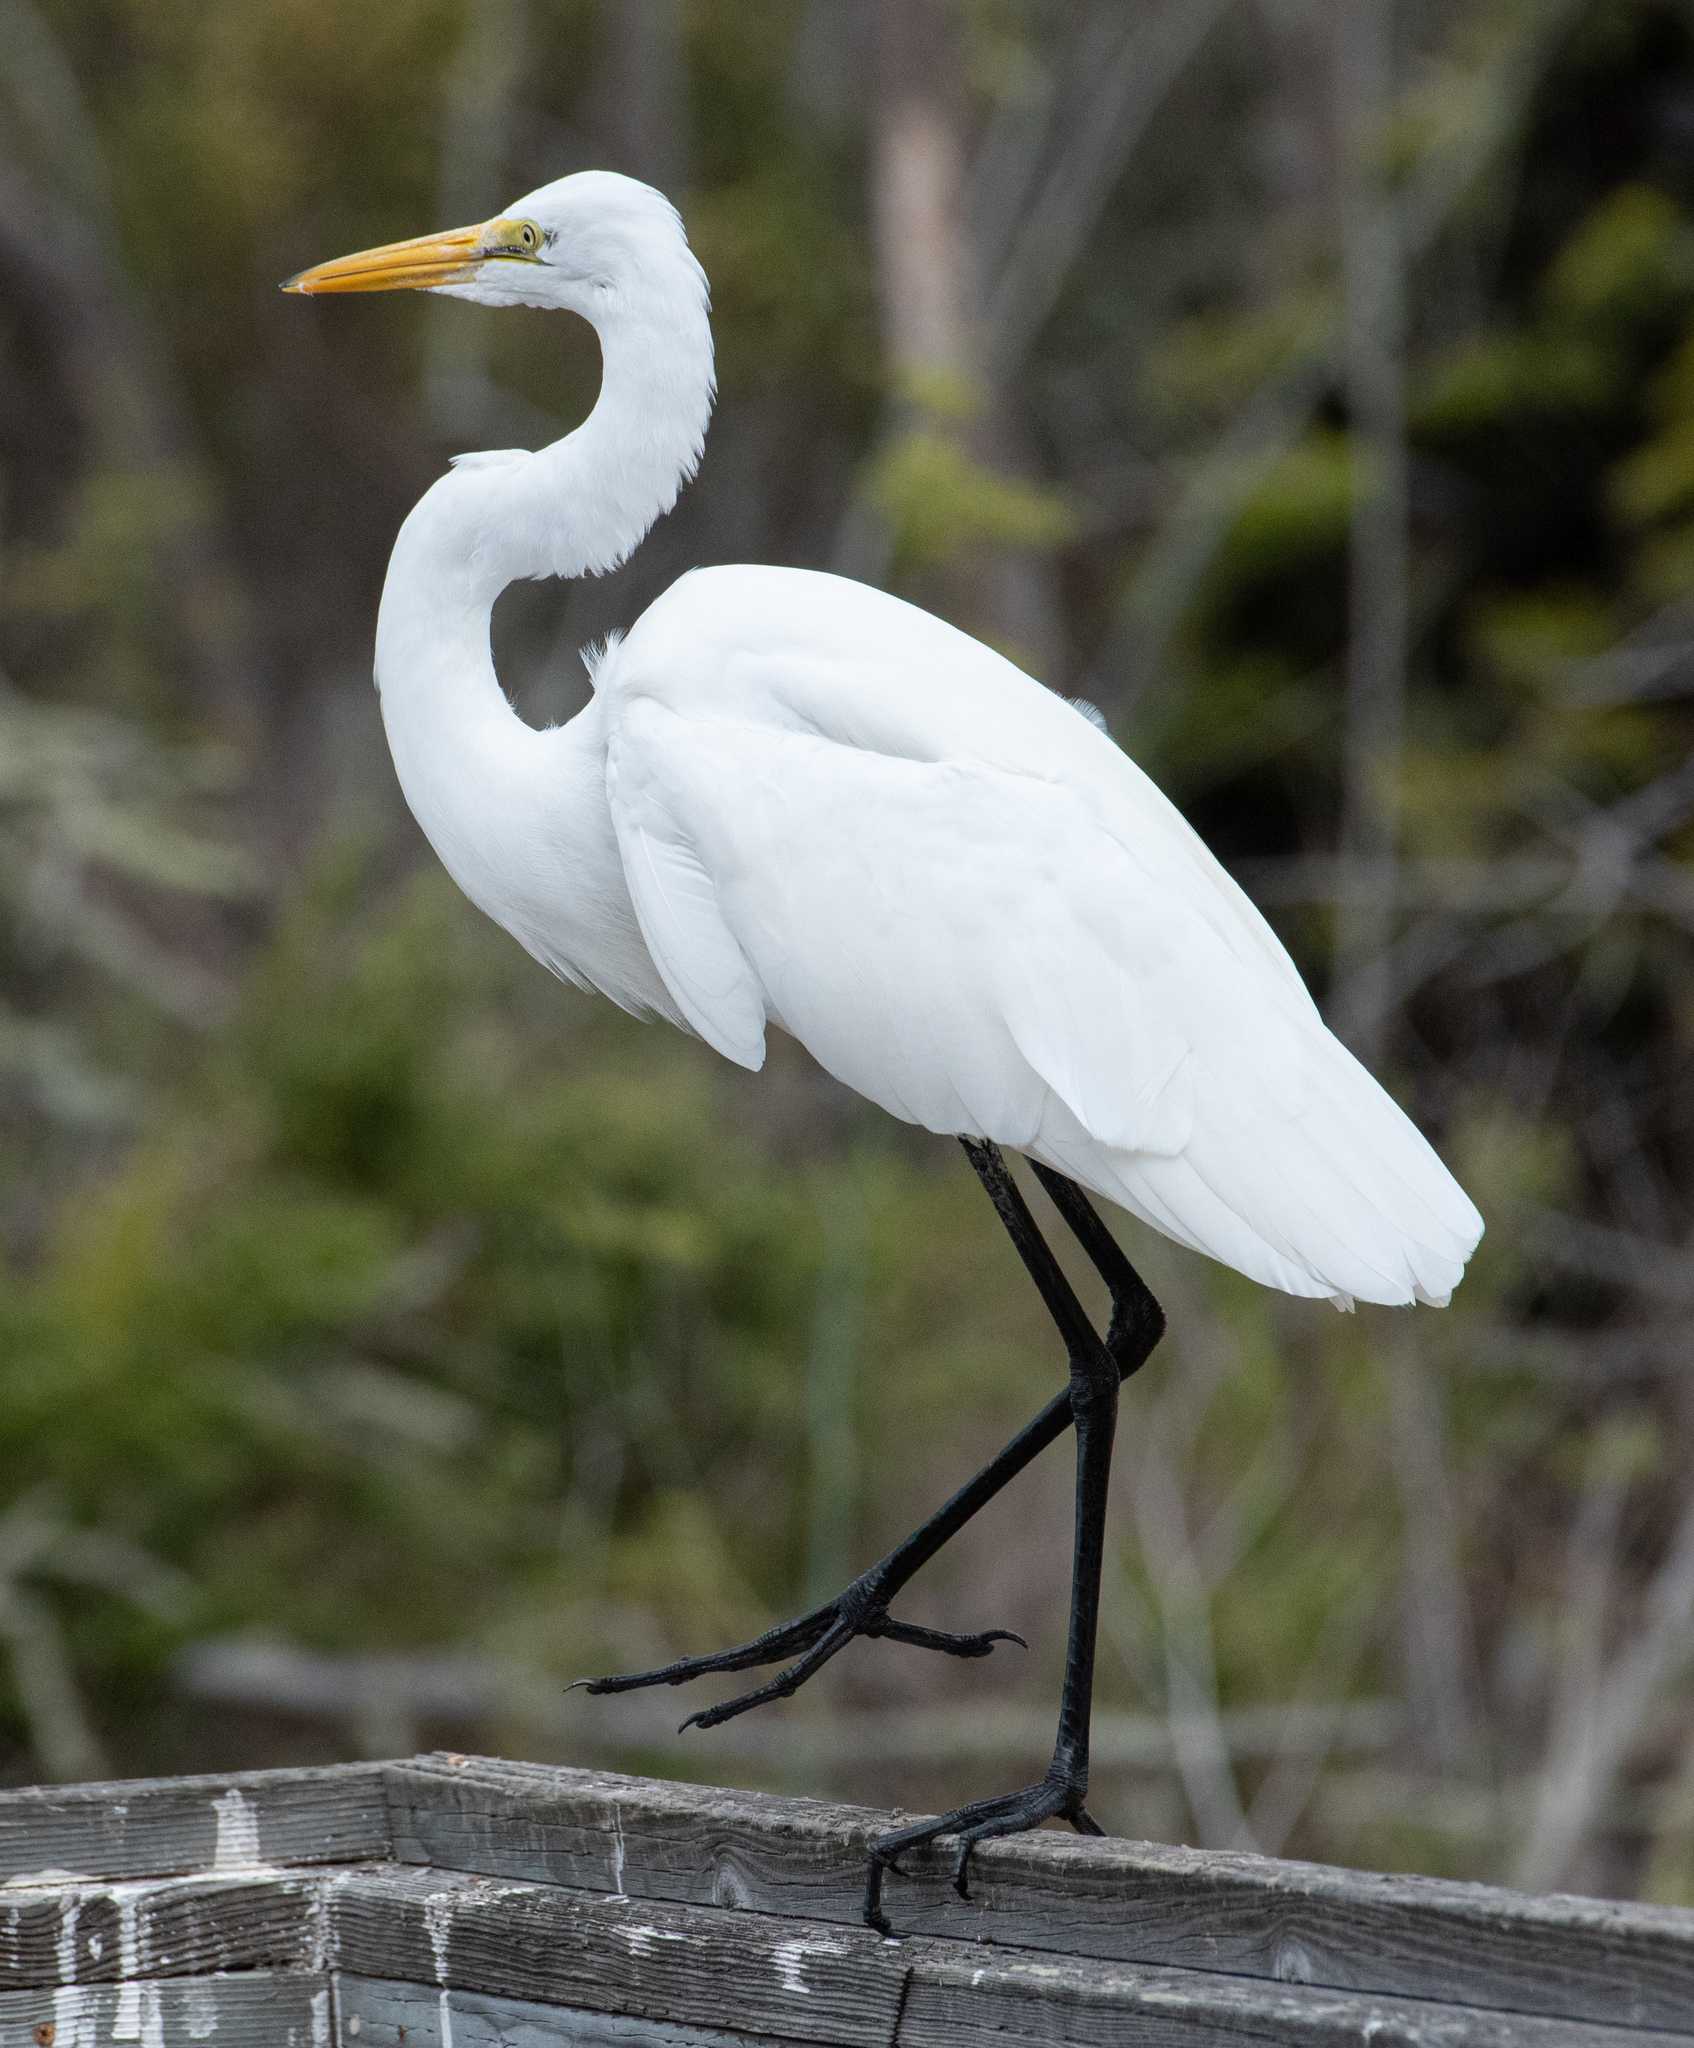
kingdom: Animalia
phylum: Chordata
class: Aves
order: Pelecaniformes
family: Ardeidae
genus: Ardea
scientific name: Ardea alba
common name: Great egret
